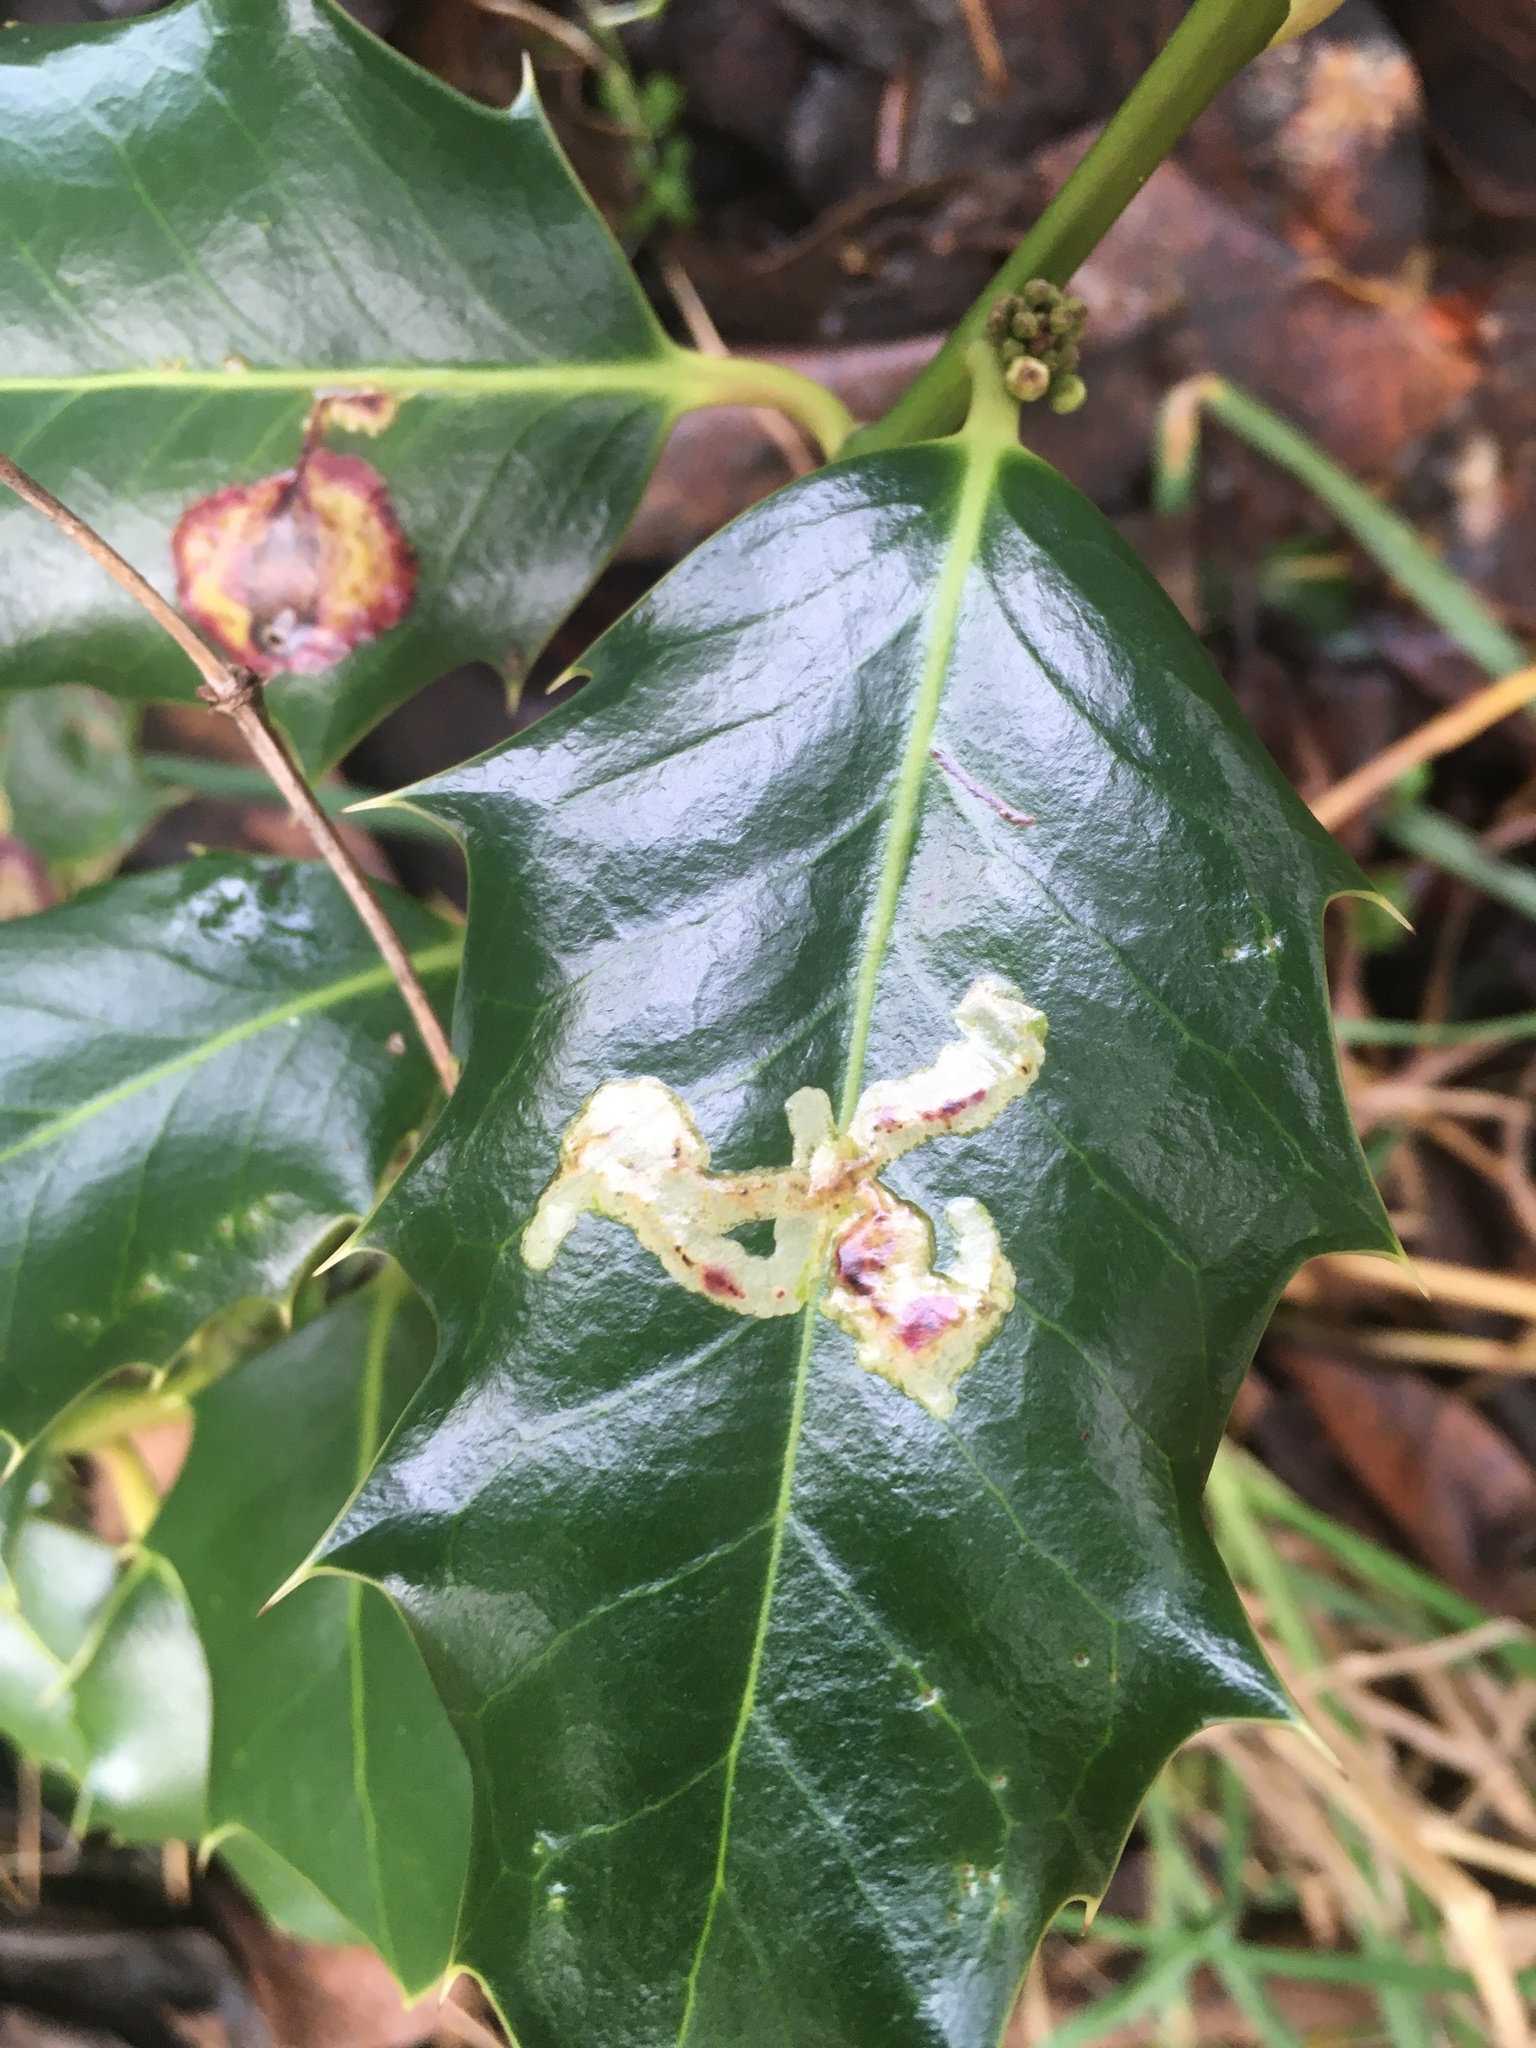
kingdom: Animalia
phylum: Arthropoda
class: Insecta
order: Diptera
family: Agromyzidae
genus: Phytomyza
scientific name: Phytomyza ilicis
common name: Holly leafminer
